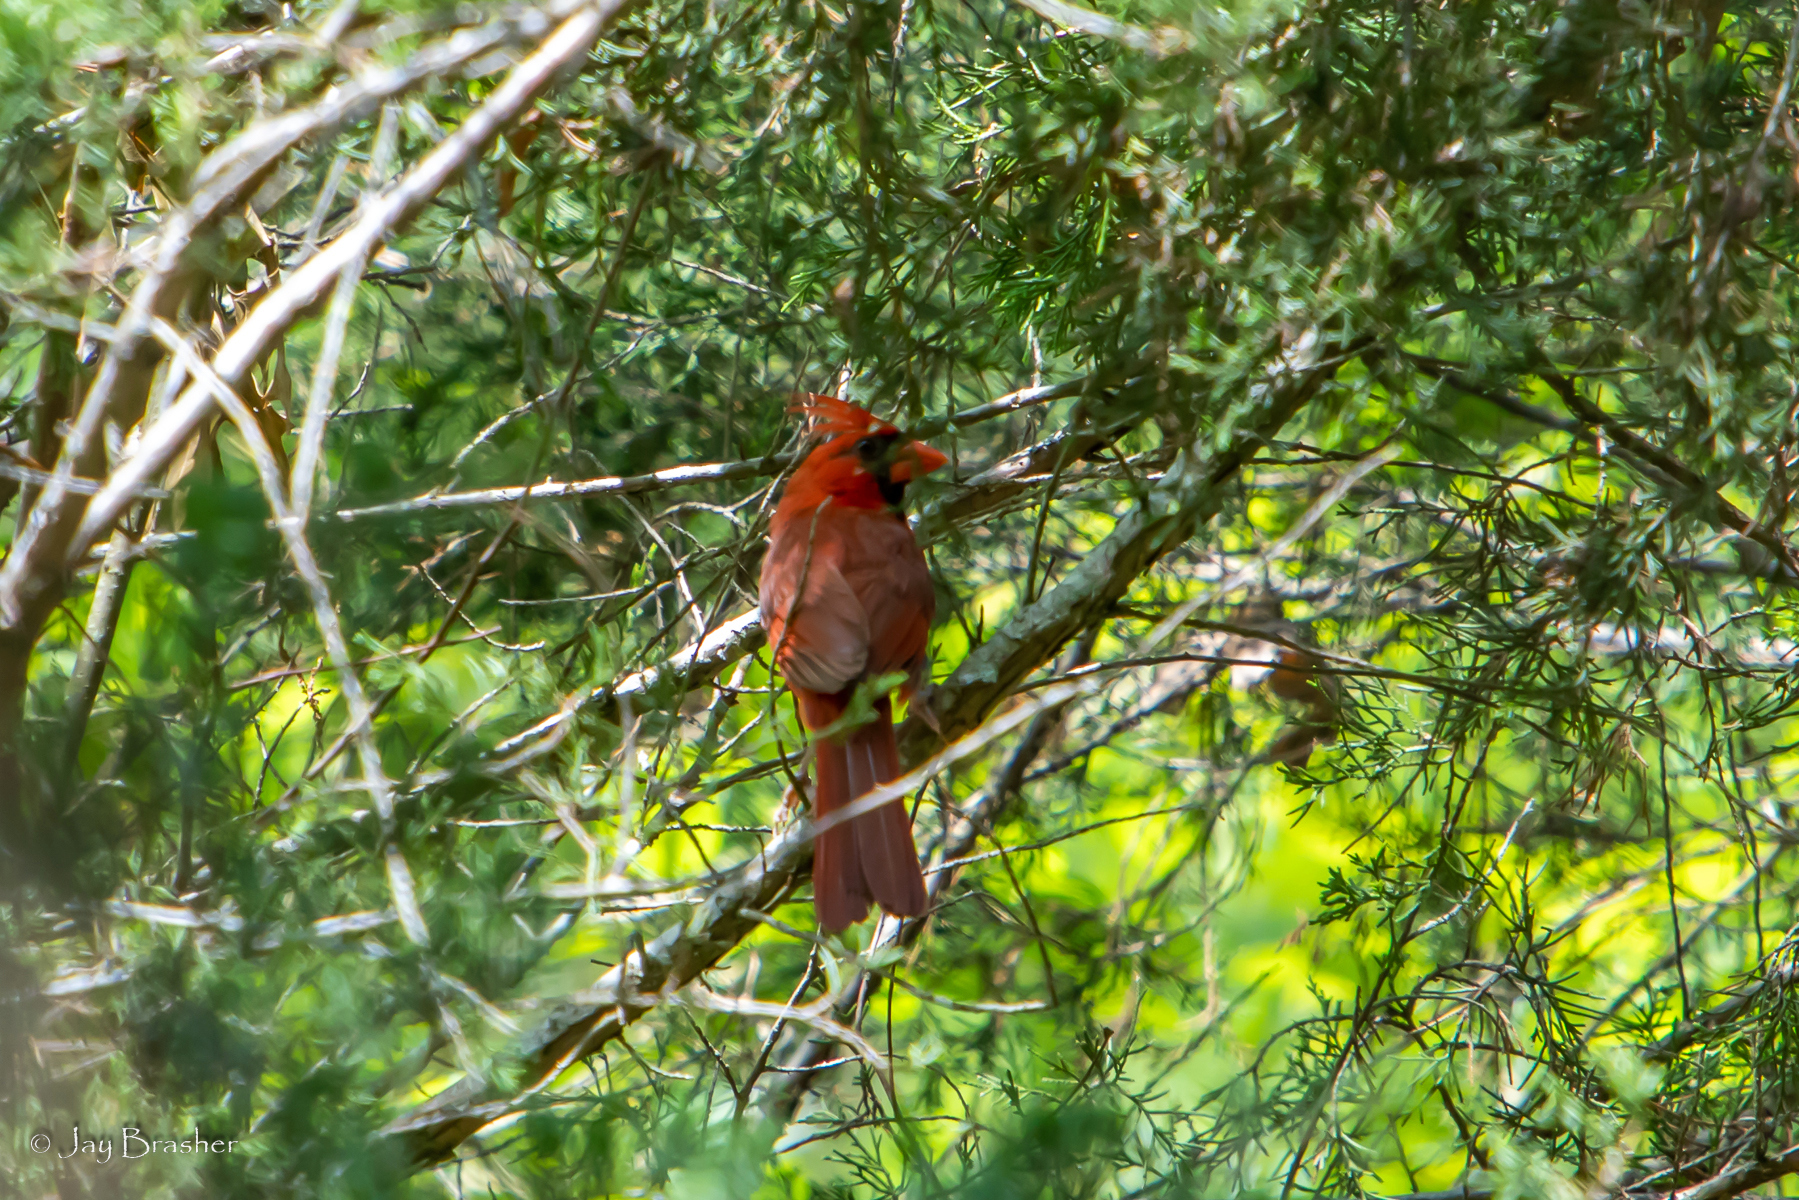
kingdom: Animalia
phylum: Chordata
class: Aves
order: Passeriformes
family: Cardinalidae
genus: Cardinalis
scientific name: Cardinalis cardinalis
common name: Northern cardinal
